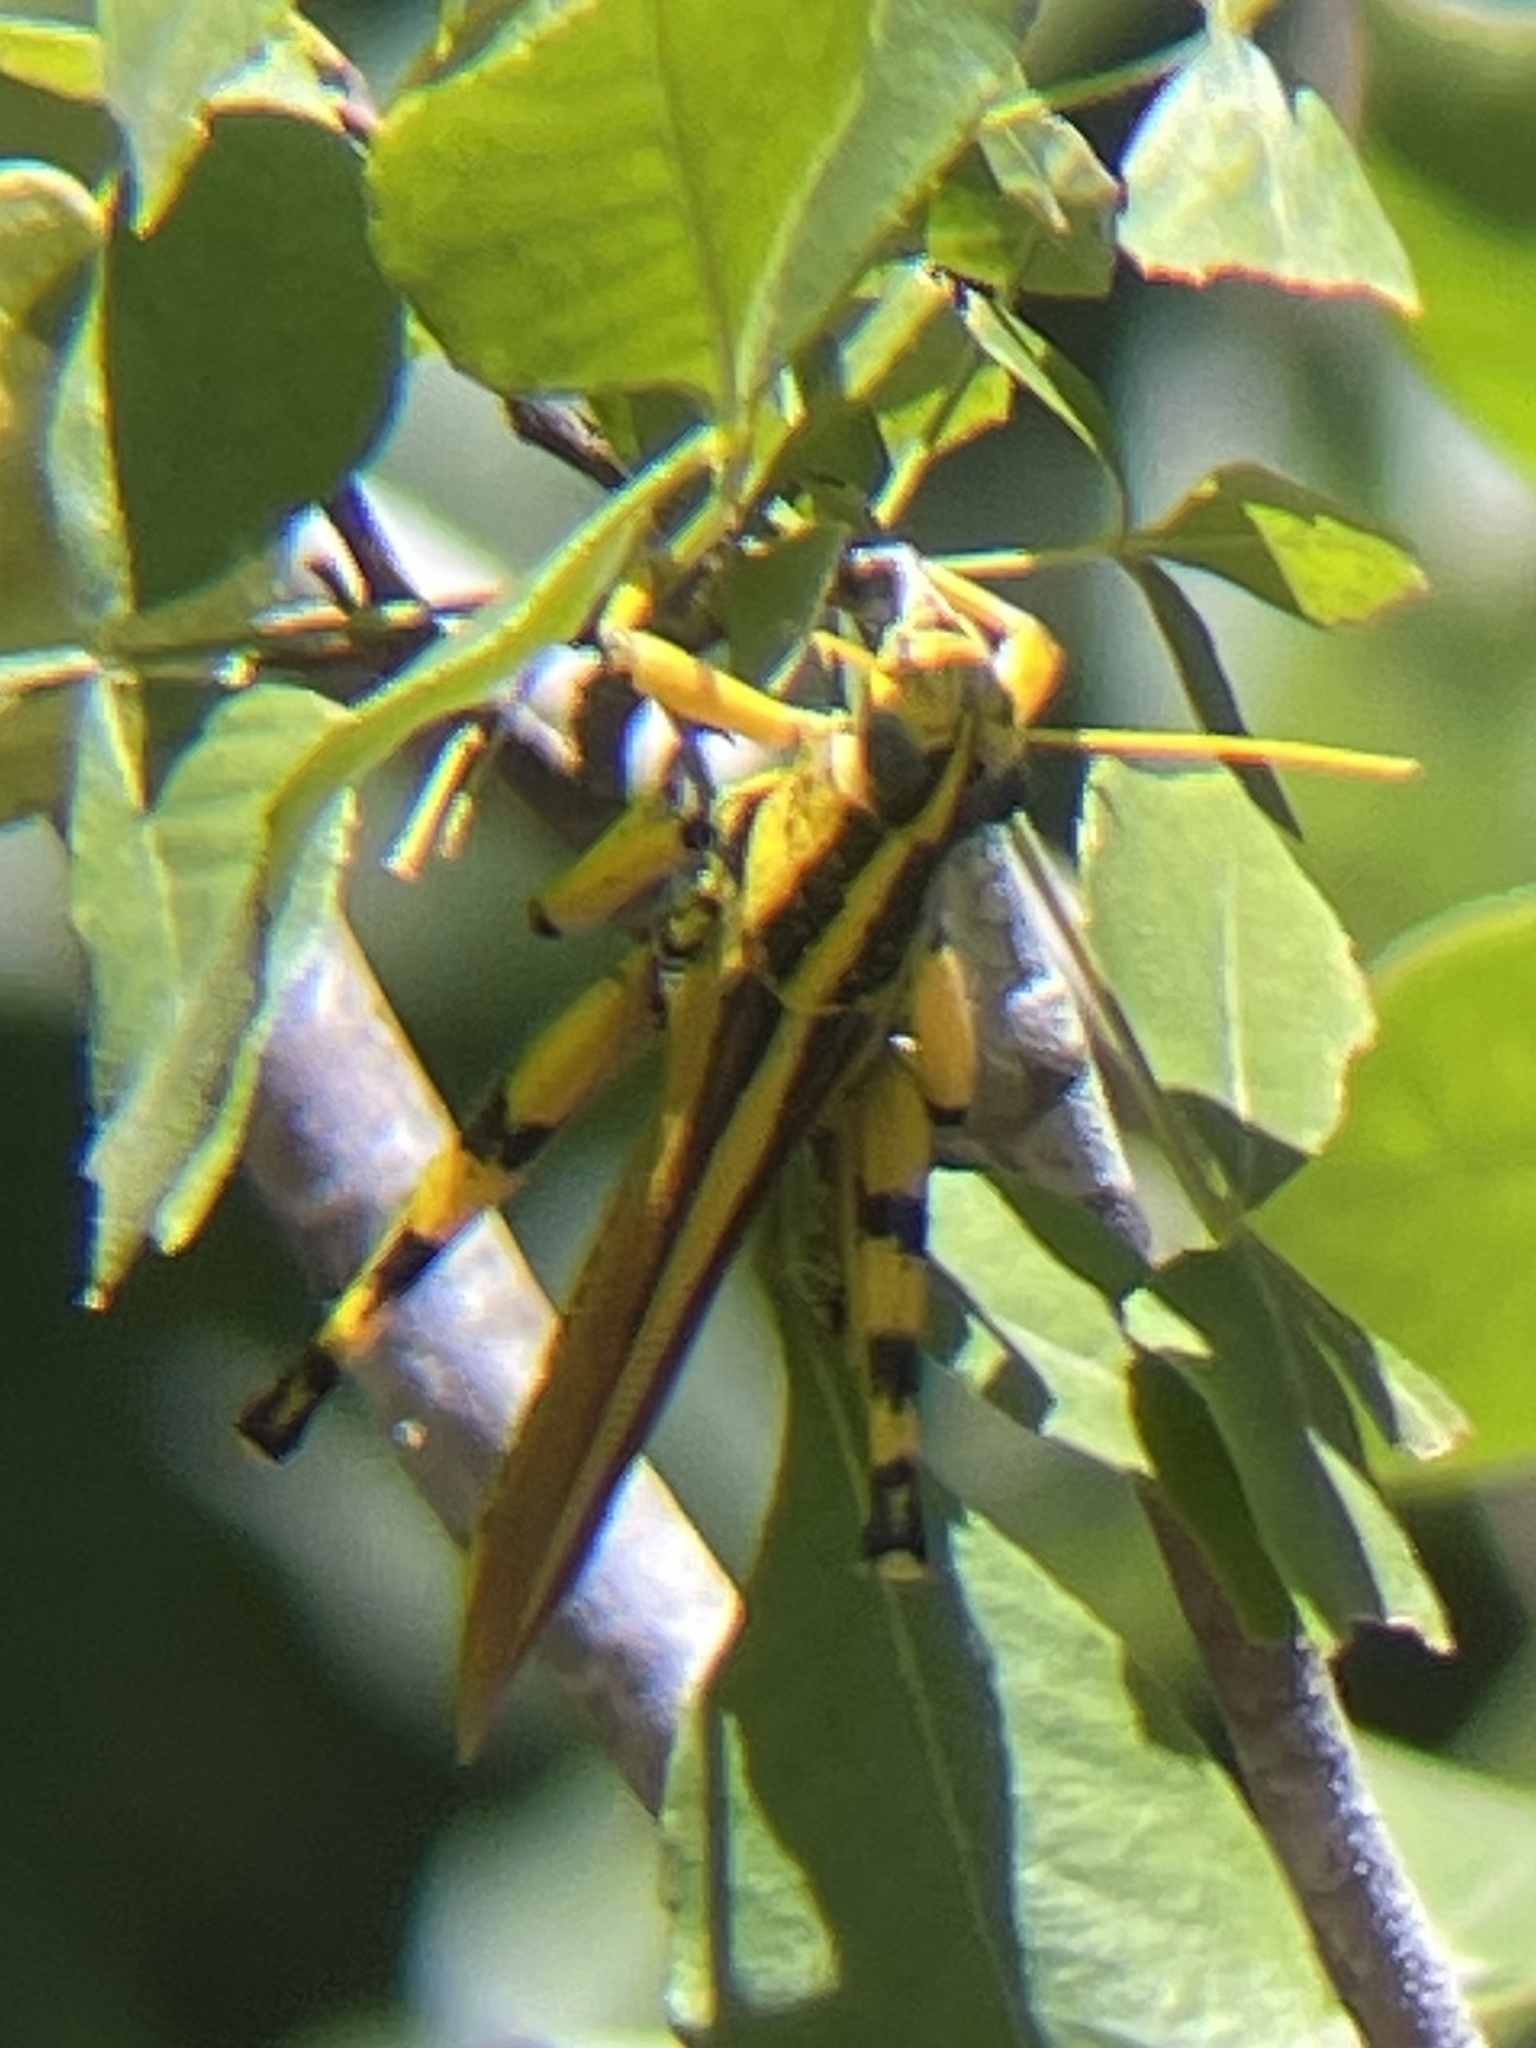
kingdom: Animalia
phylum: Arthropoda
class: Insecta
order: Orthoptera
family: Acrididae
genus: Schistocerca
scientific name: Schistocerca lineata
